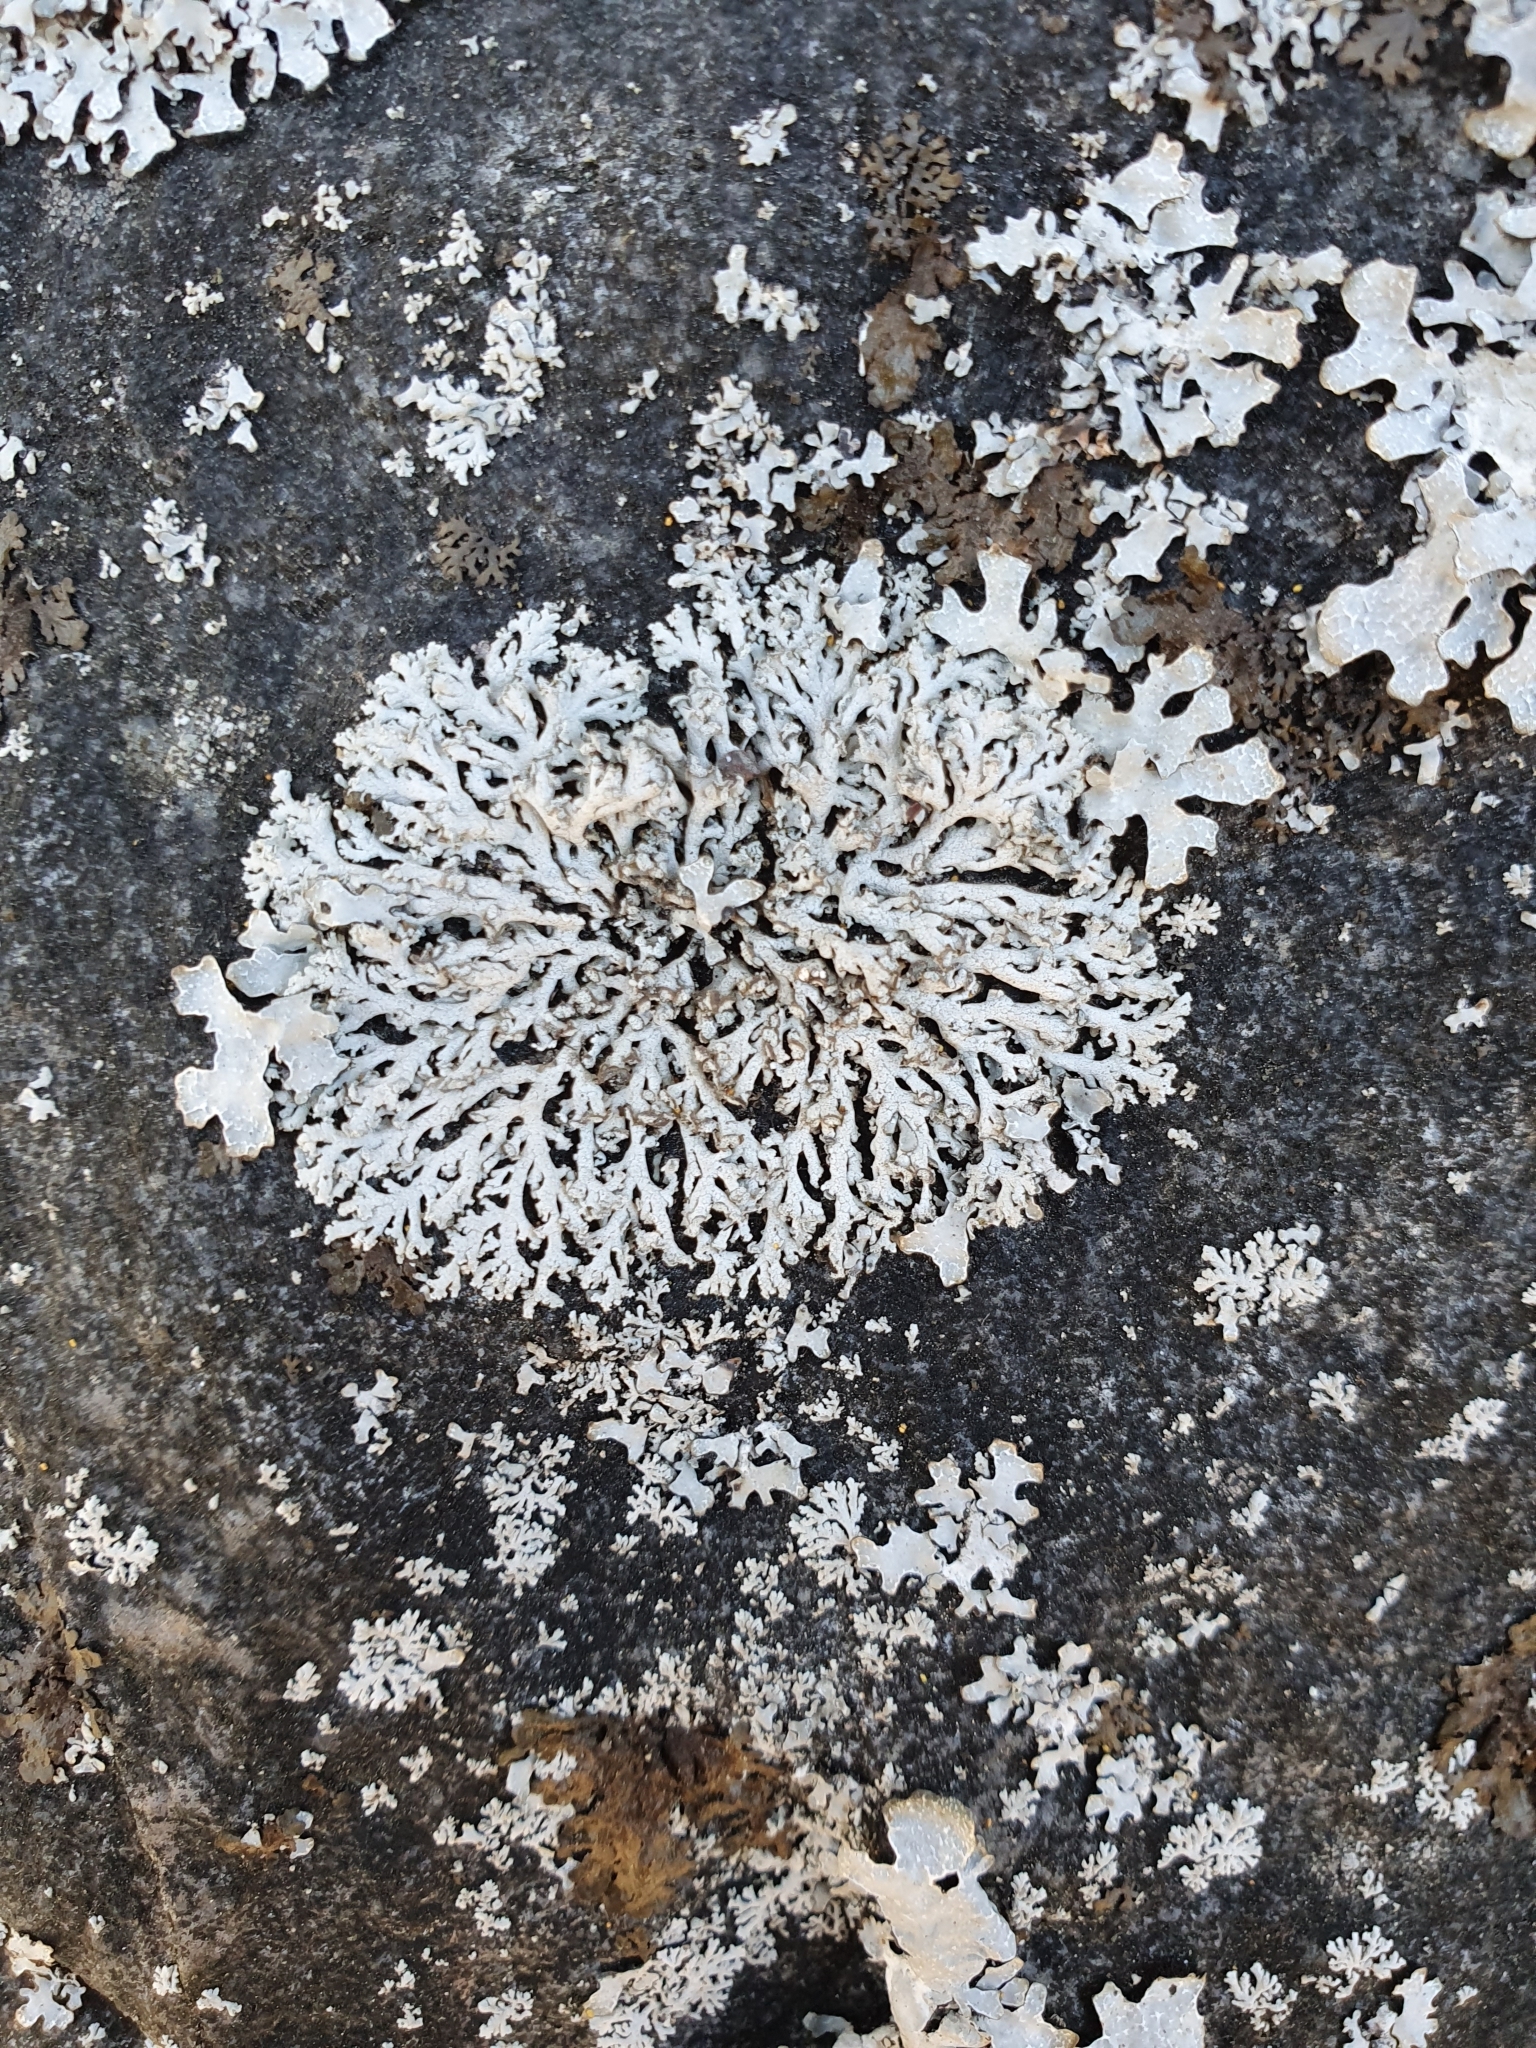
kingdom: Fungi
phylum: Ascomycota
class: Lecanoromycetes
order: Caliciales
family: Physciaceae
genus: Physcia
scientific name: Physcia caesia
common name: Blue-gray rosette lichen
